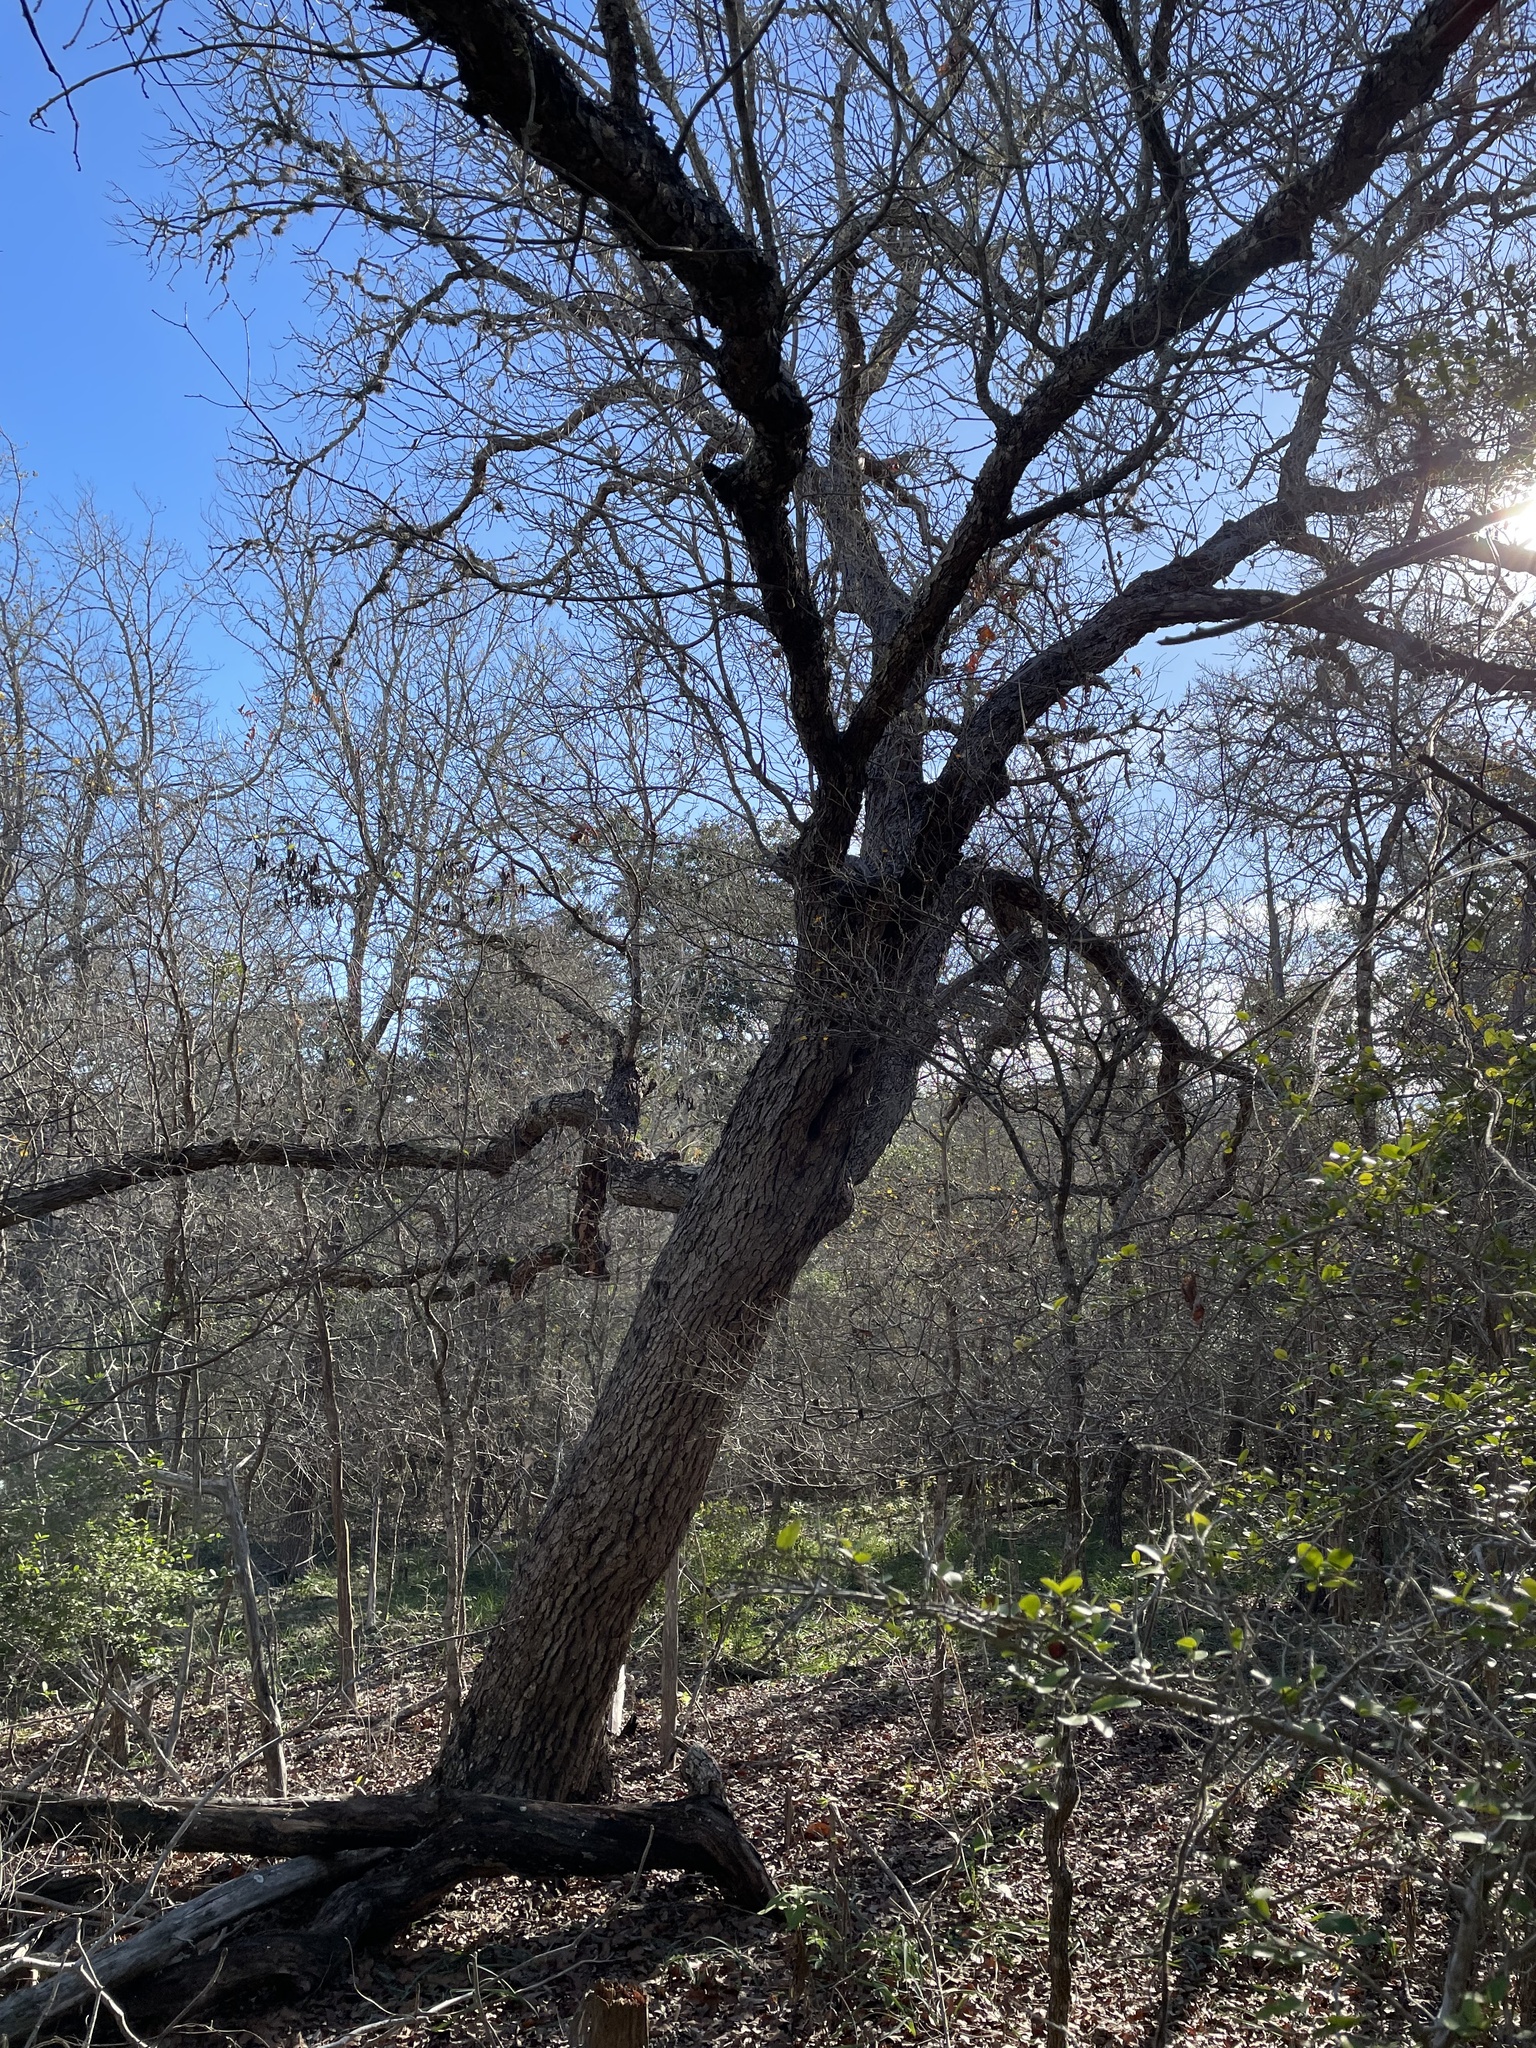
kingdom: Plantae
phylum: Tracheophyta
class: Magnoliopsida
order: Fagales
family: Fagaceae
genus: Quercus
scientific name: Quercus sinuata
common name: Durand oak
